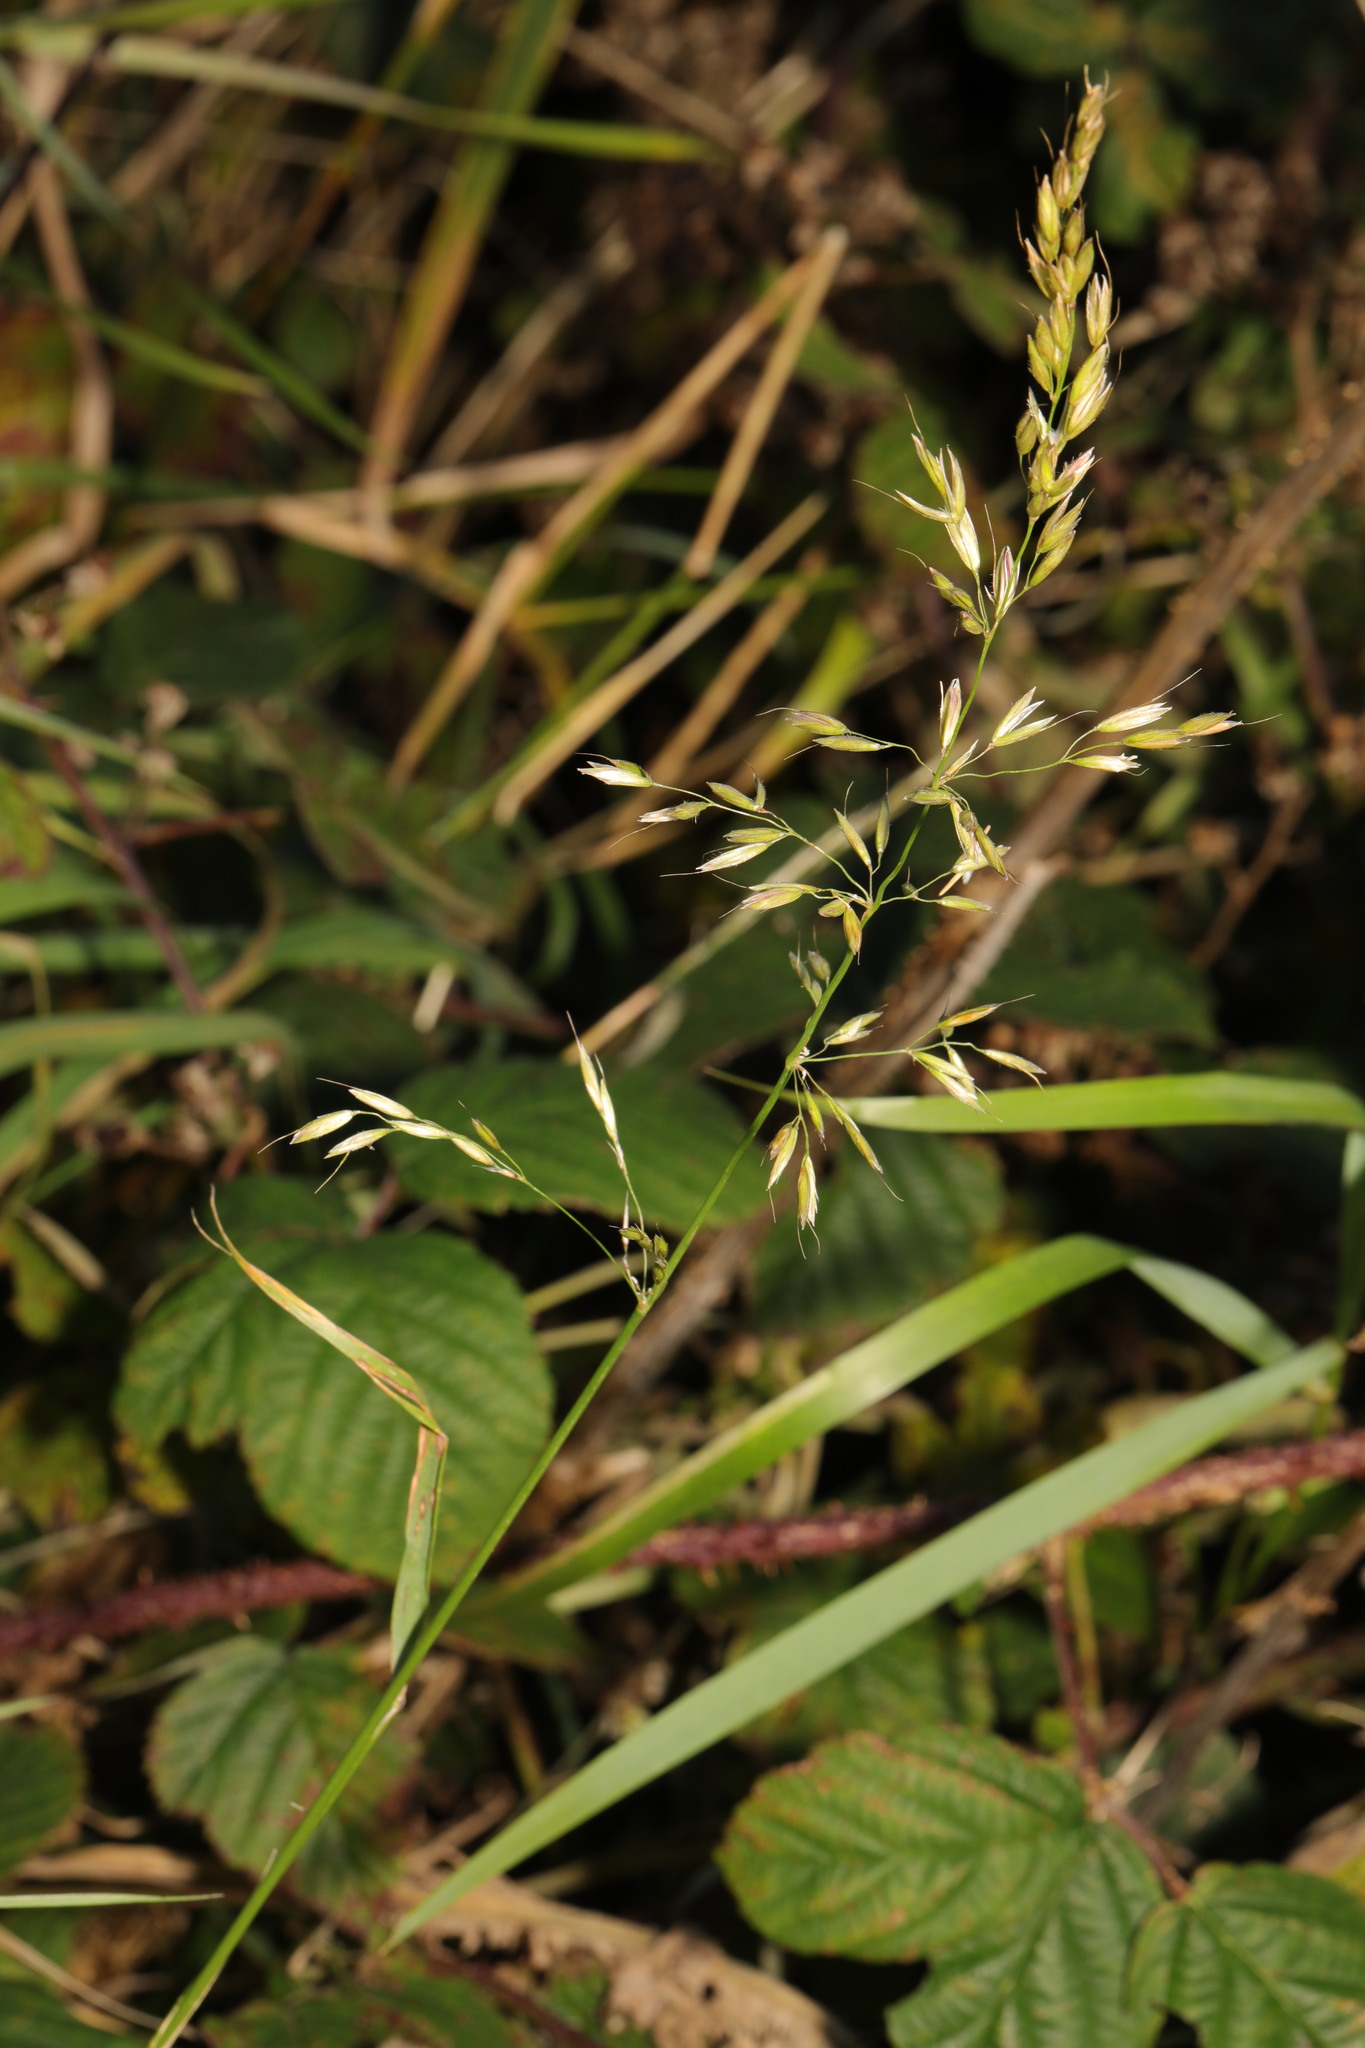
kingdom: Plantae
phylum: Tracheophyta
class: Liliopsida
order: Poales
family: Poaceae
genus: Arrhenatherum
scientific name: Arrhenatherum elatius
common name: Tall oatgrass
